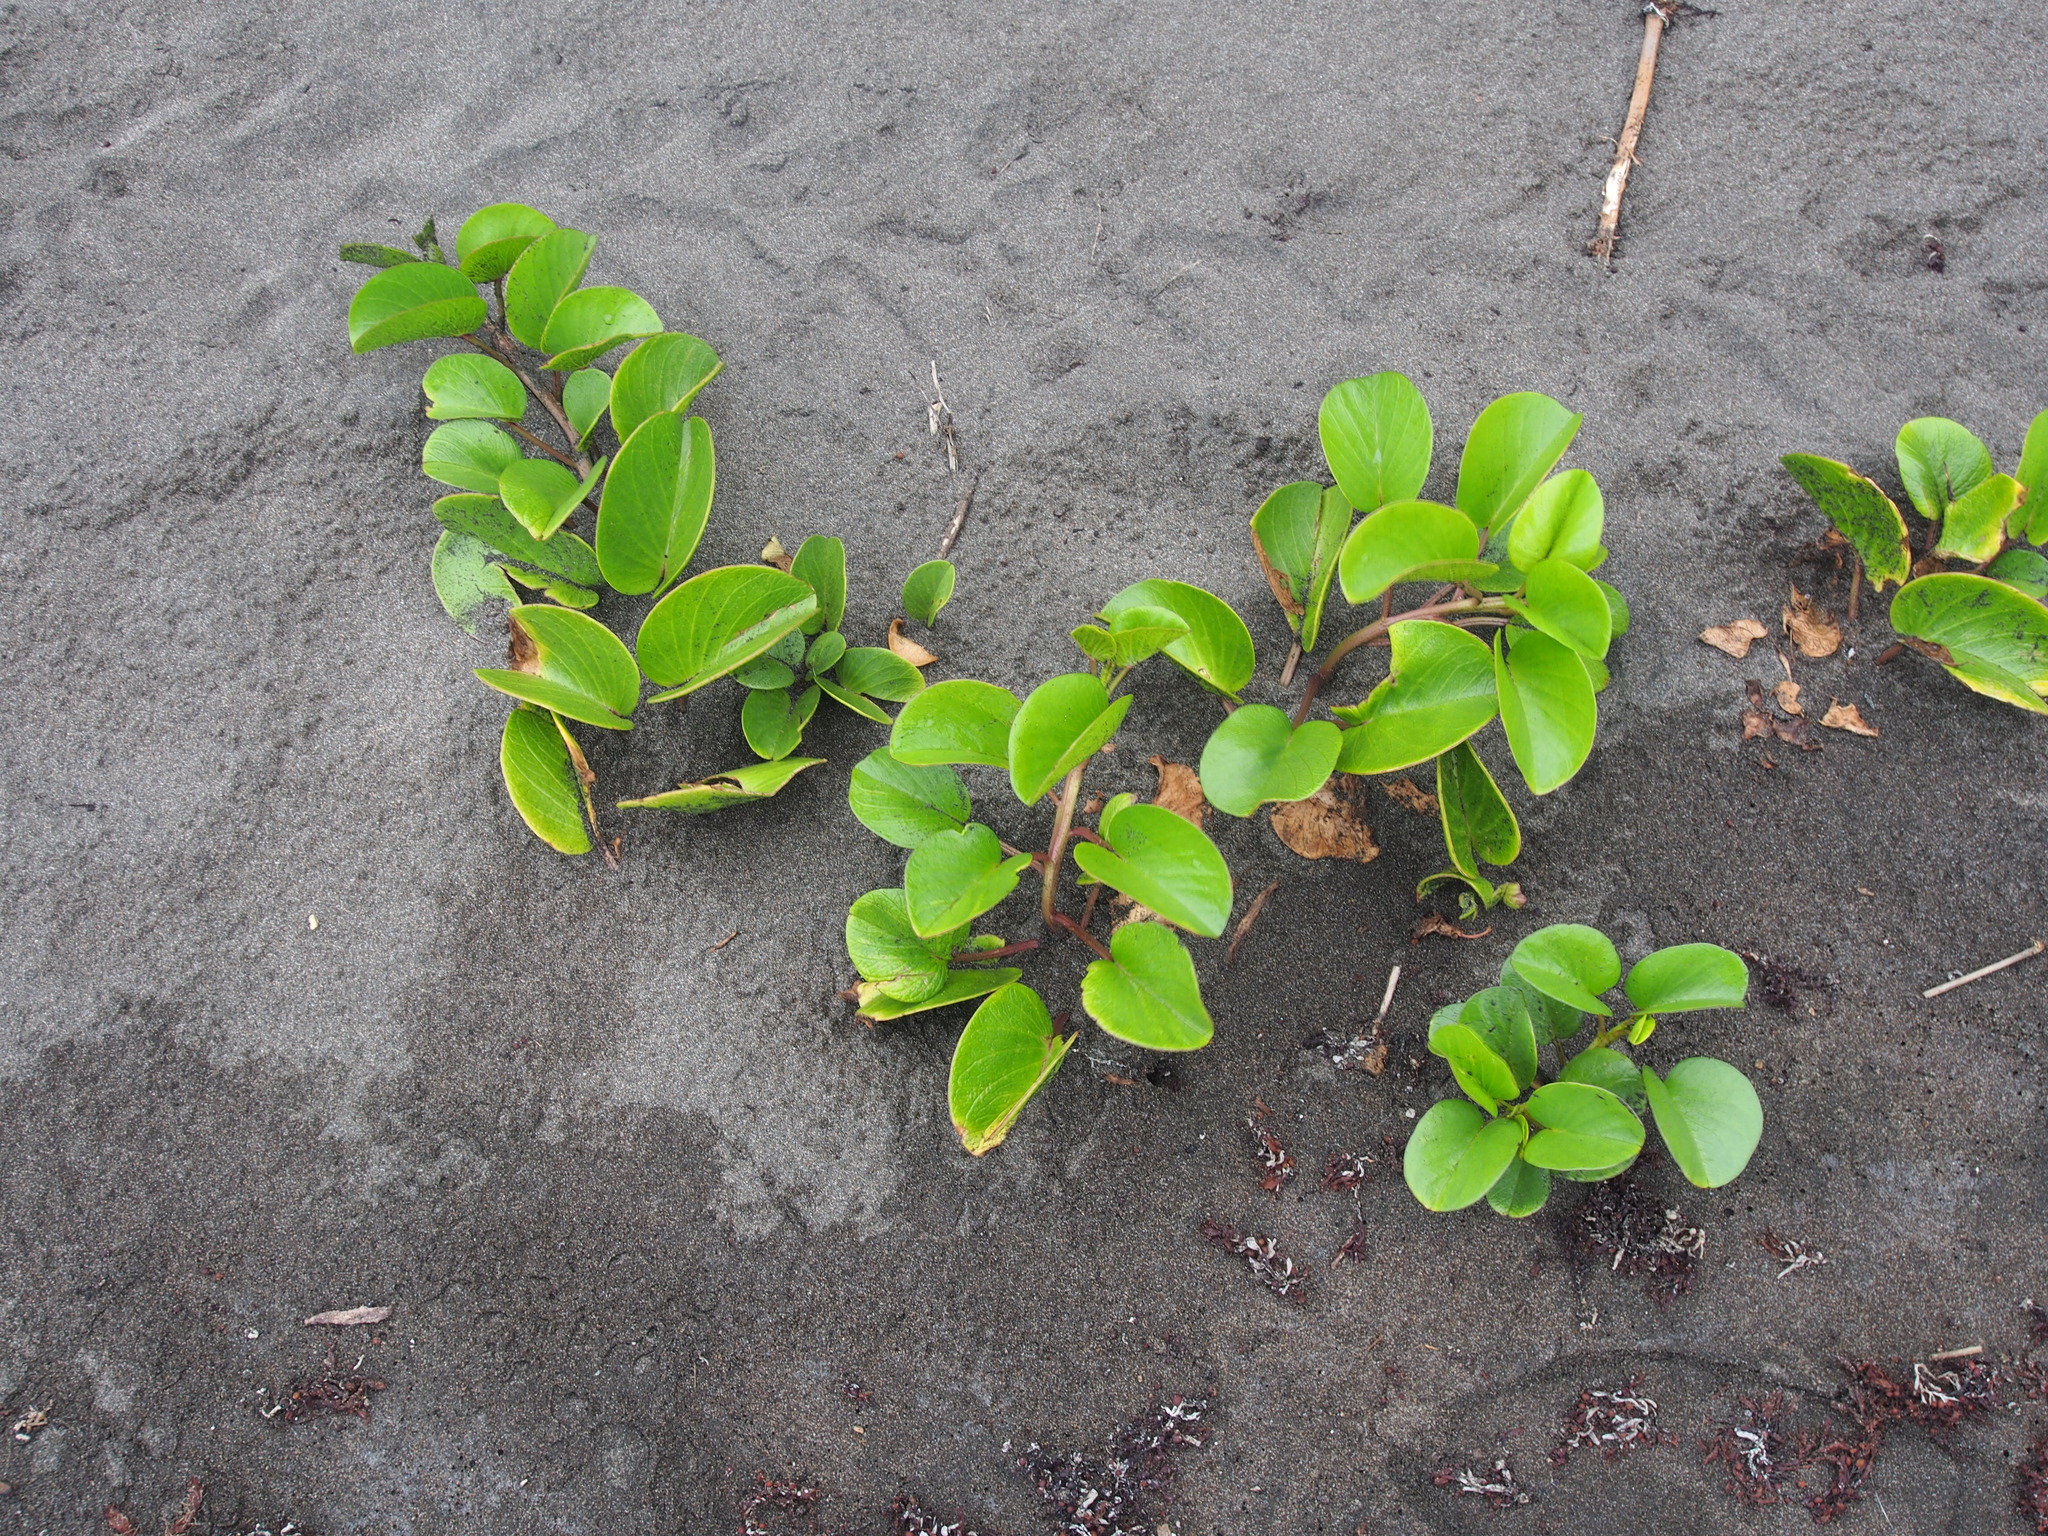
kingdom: Plantae
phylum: Tracheophyta
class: Magnoliopsida
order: Solanales
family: Convolvulaceae
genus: Ipomoea
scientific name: Ipomoea pes-caprae
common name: Beach morning glory
